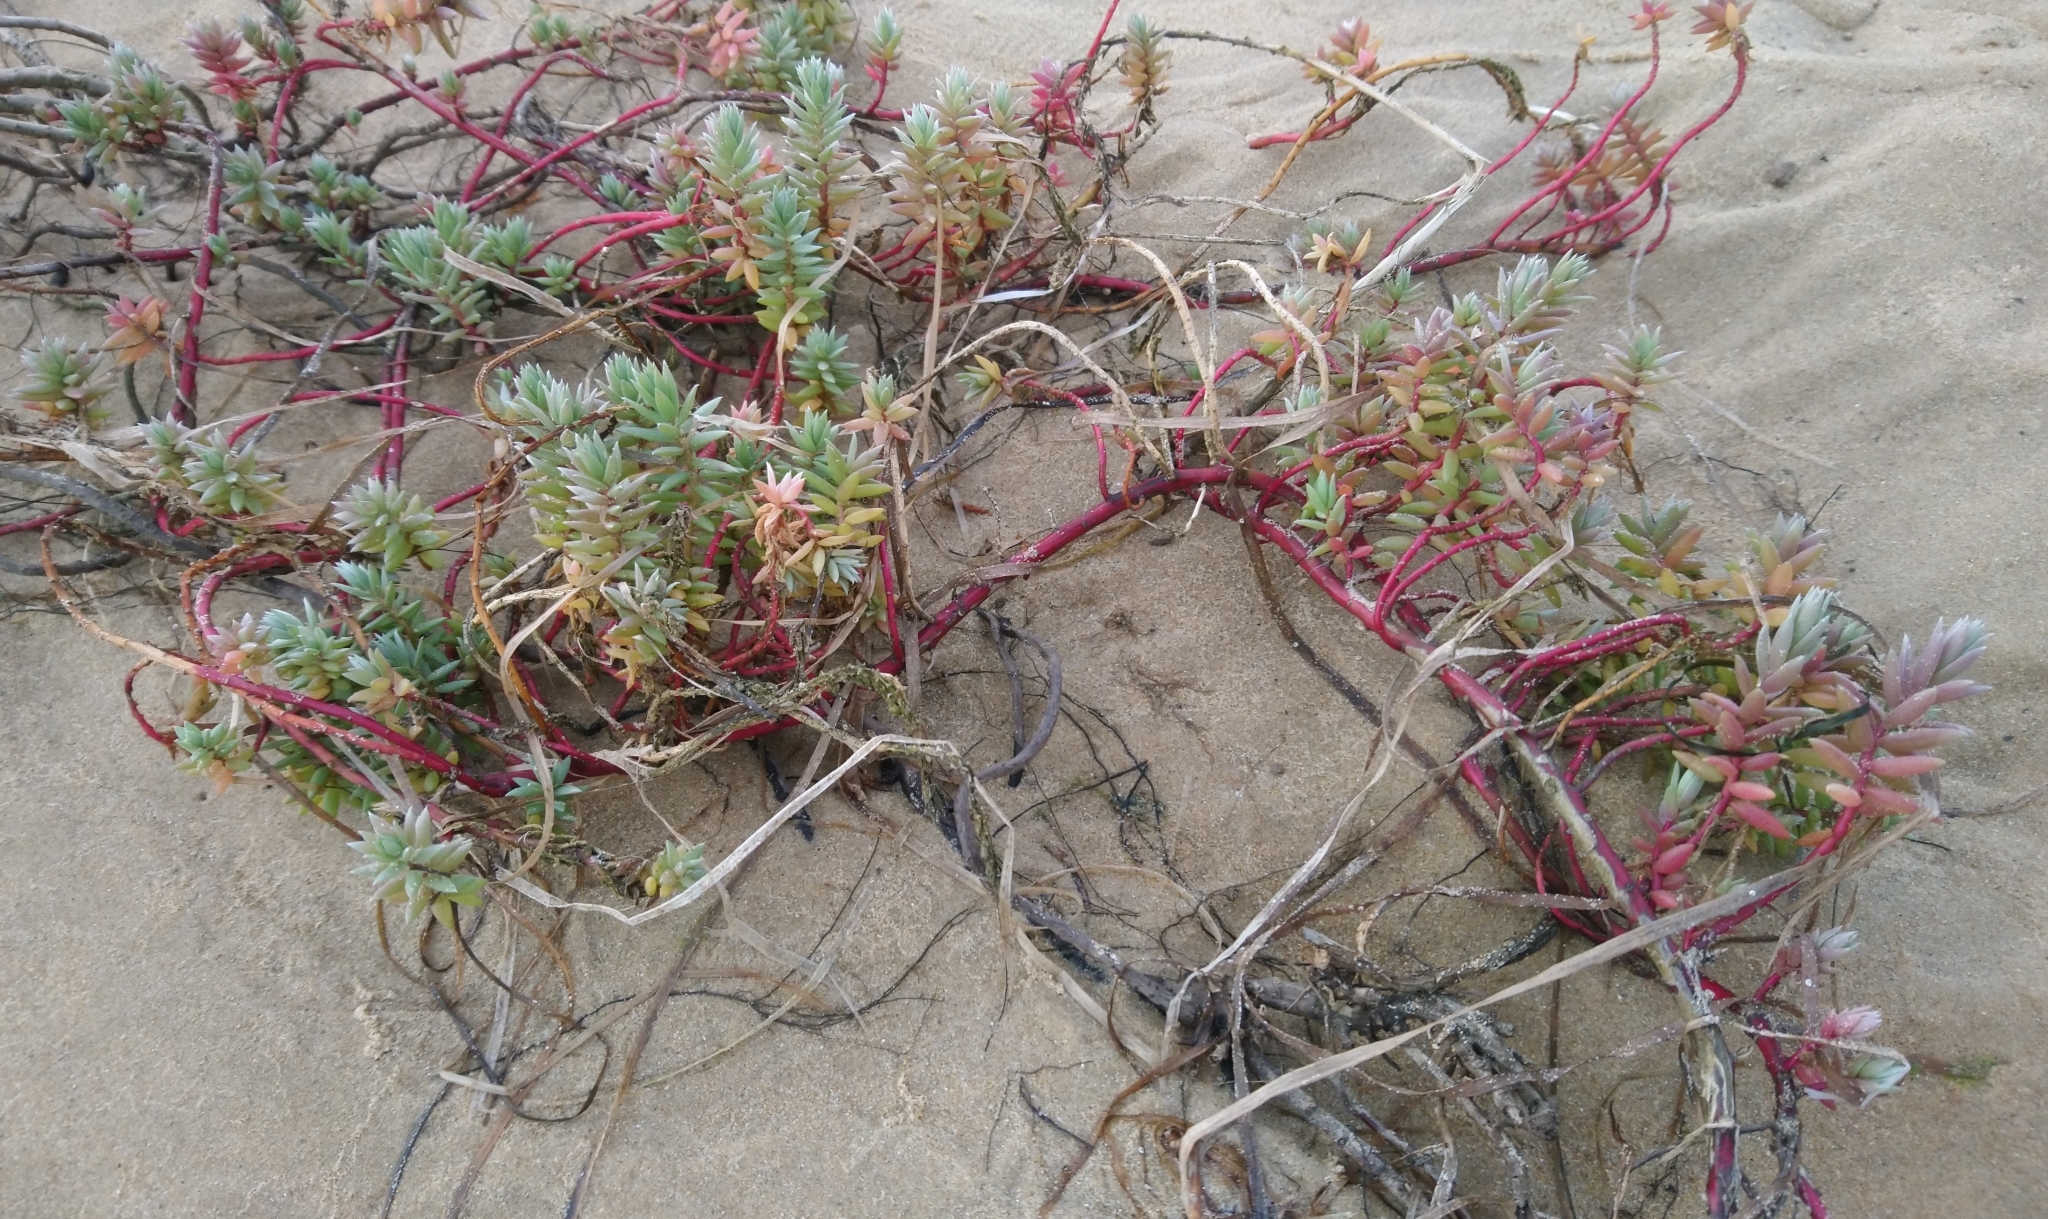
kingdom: Plantae
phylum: Tracheophyta
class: Magnoliopsida
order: Caryophyllales
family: Amaranthaceae
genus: Chenolea
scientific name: Chenolea diffusa
